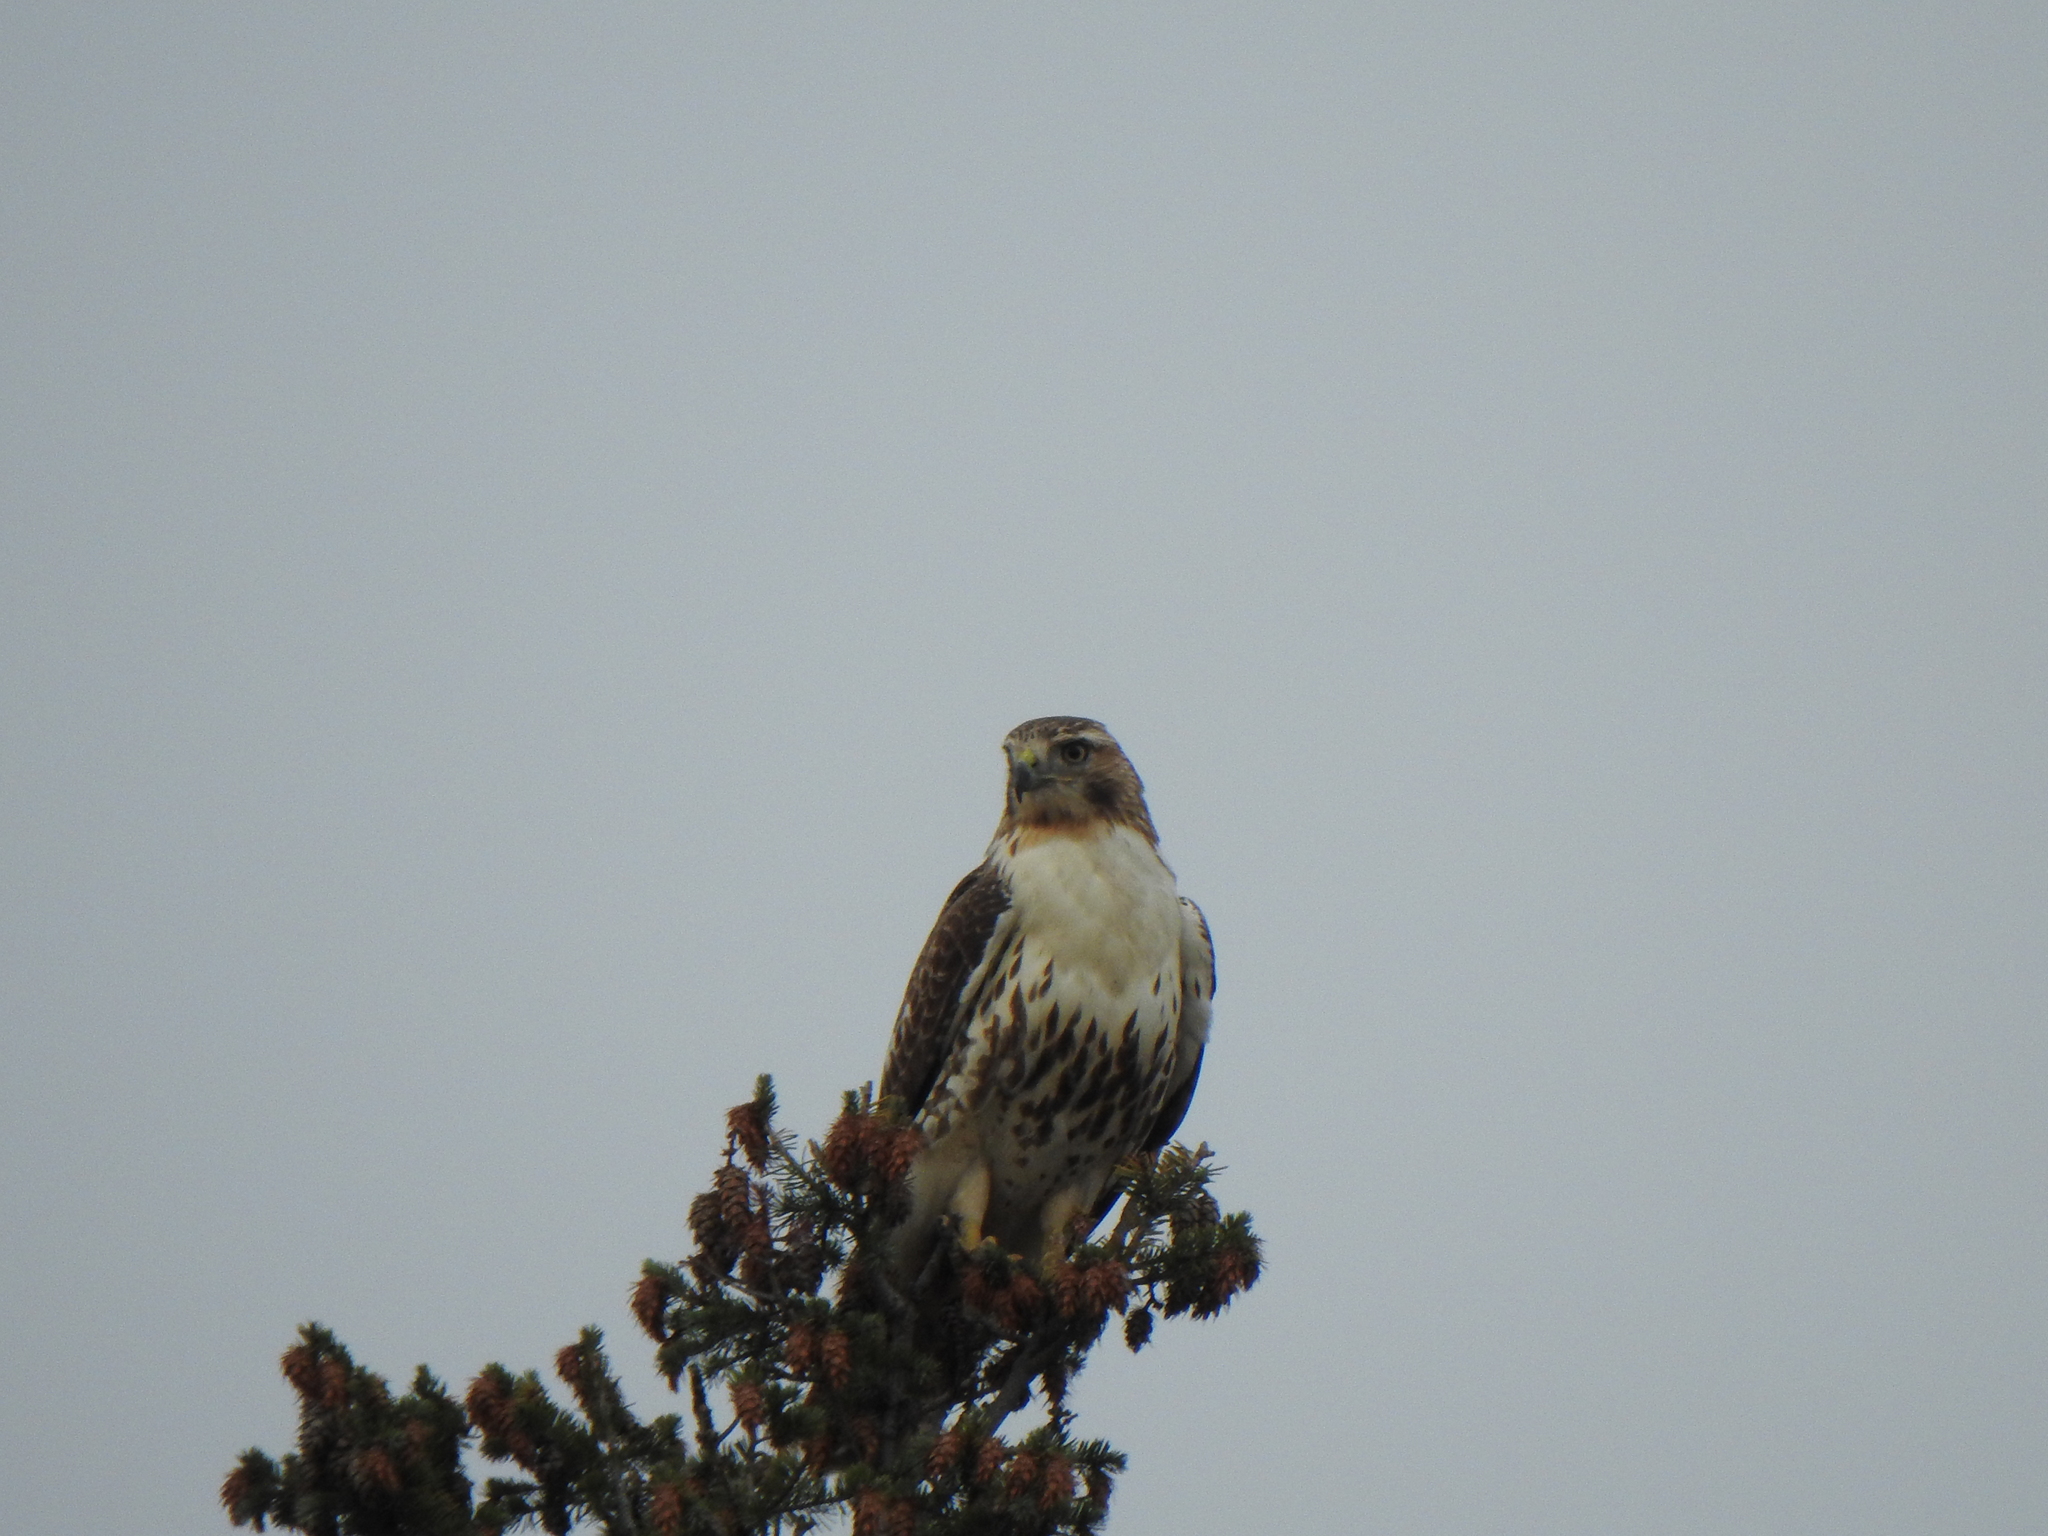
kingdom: Animalia
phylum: Chordata
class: Aves
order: Accipitriformes
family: Accipitridae
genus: Buteo
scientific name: Buteo jamaicensis
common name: Red-tailed hawk
